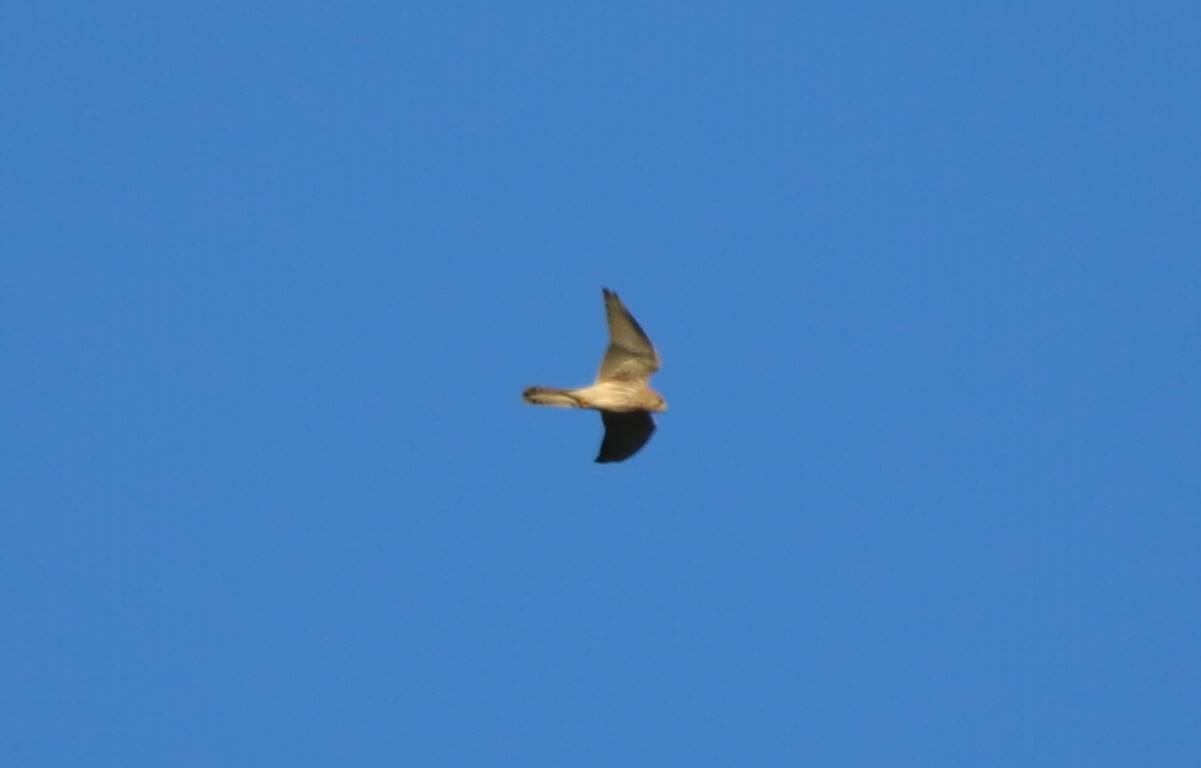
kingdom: Animalia
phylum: Chordata
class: Aves
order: Falconiformes
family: Falconidae
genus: Falco
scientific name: Falco tinnunculus
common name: Common kestrel
